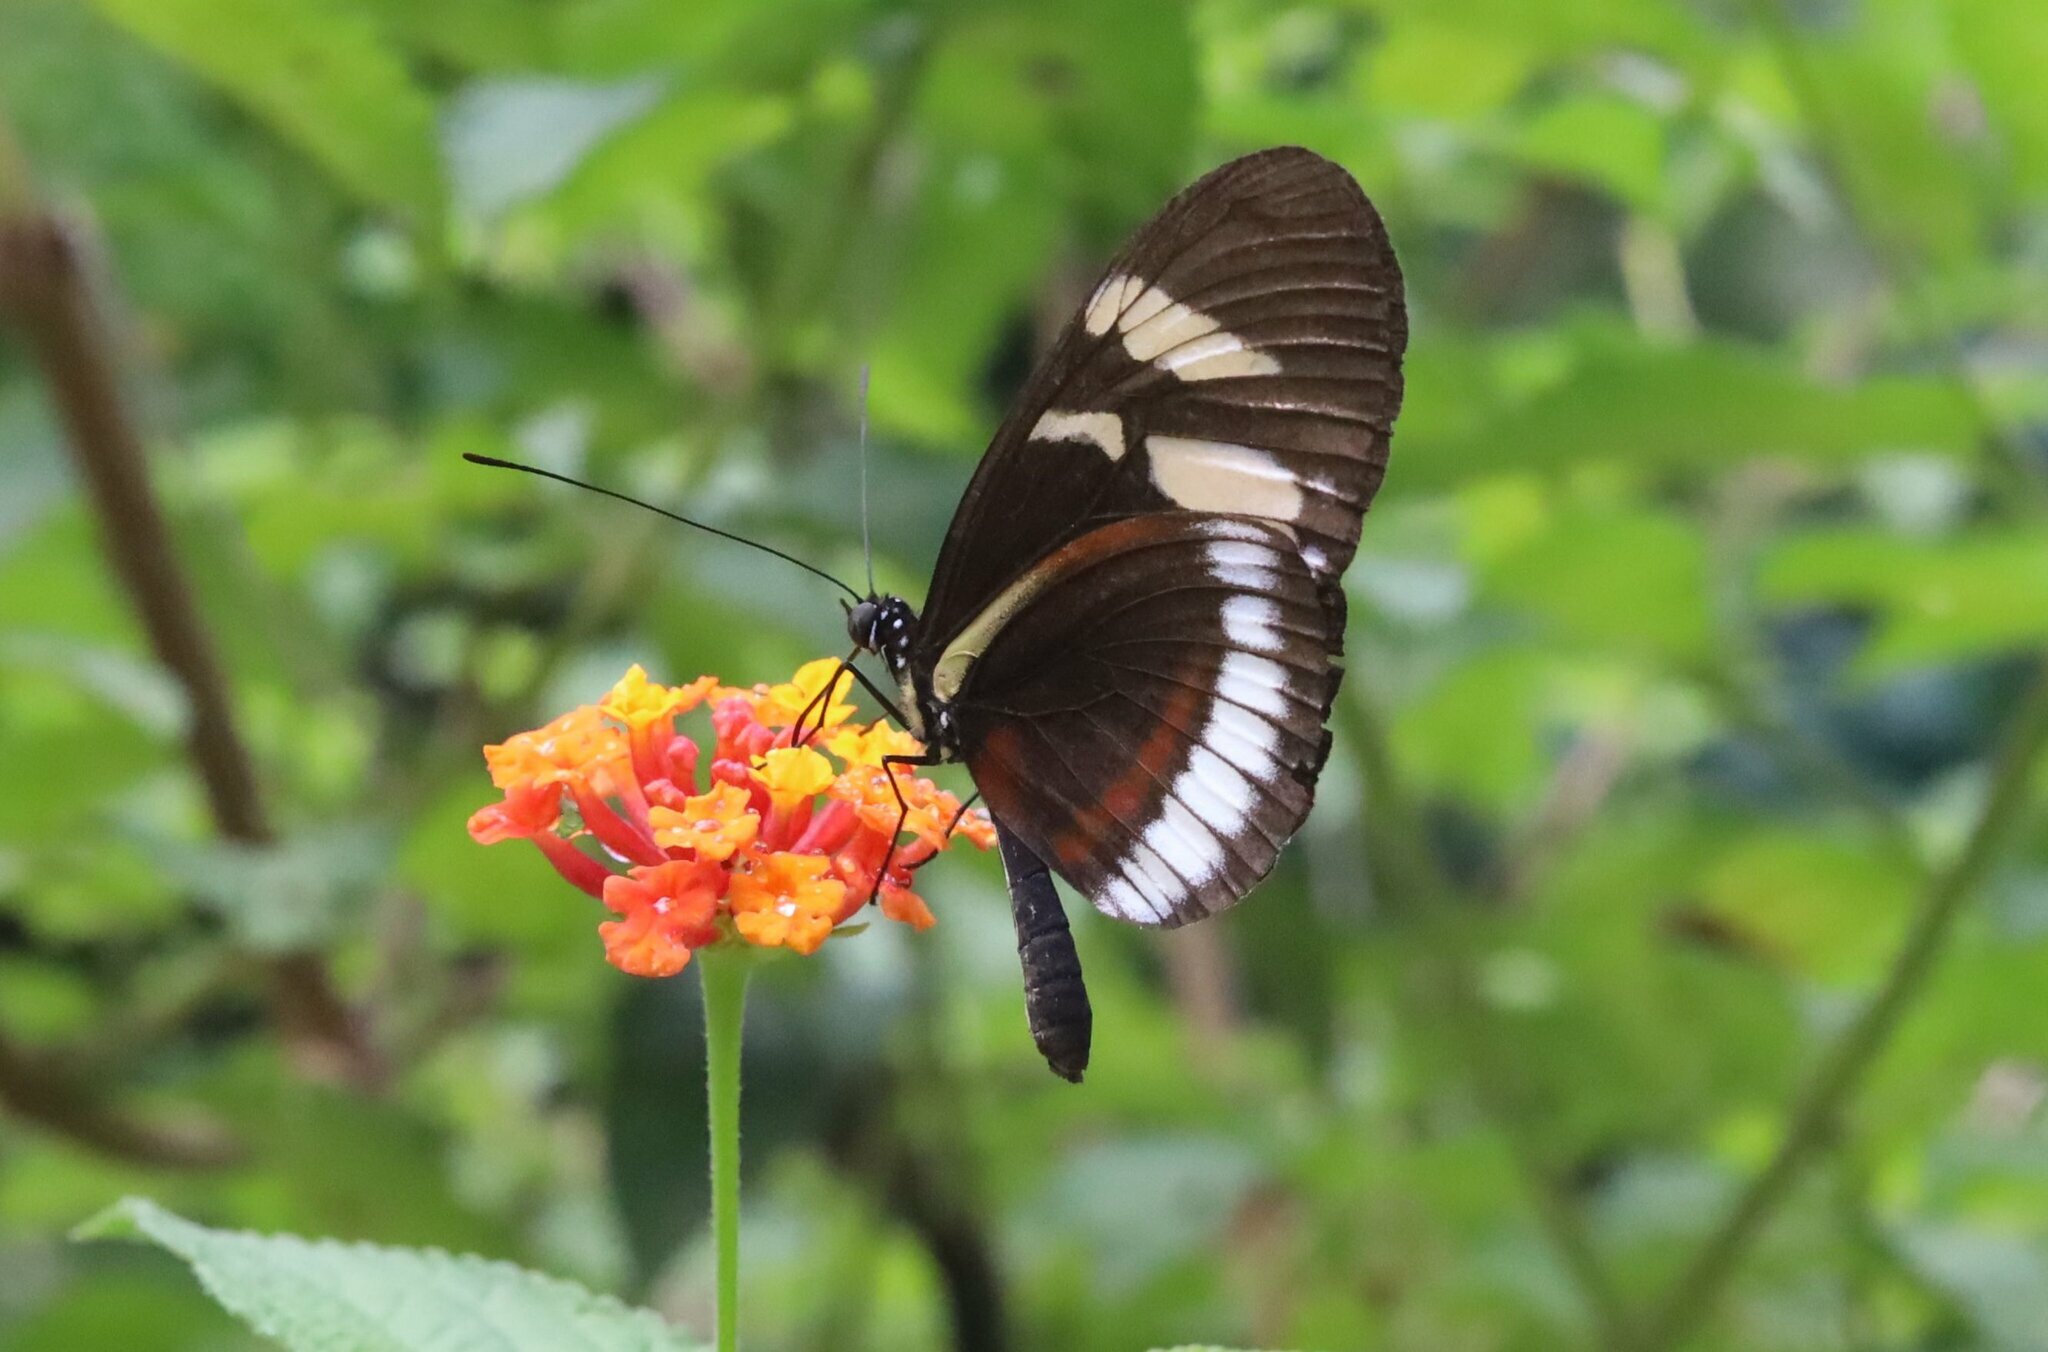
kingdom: Animalia
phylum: Arthropoda
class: Insecta
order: Lepidoptera
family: Nymphalidae
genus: Heliconius
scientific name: Heliconius cydno
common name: Cydno longwing
